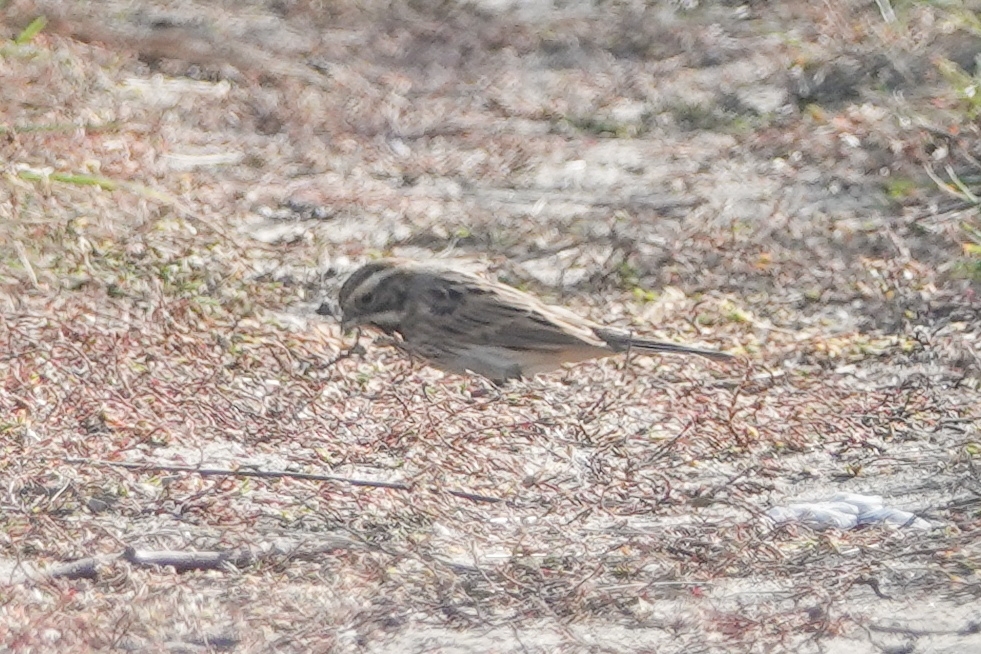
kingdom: Animalia
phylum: Chordata
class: Aves
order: Passeriformes
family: Emberizidae
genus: Emberiza
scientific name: Emberiza schoeniclus
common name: Reed bunting
